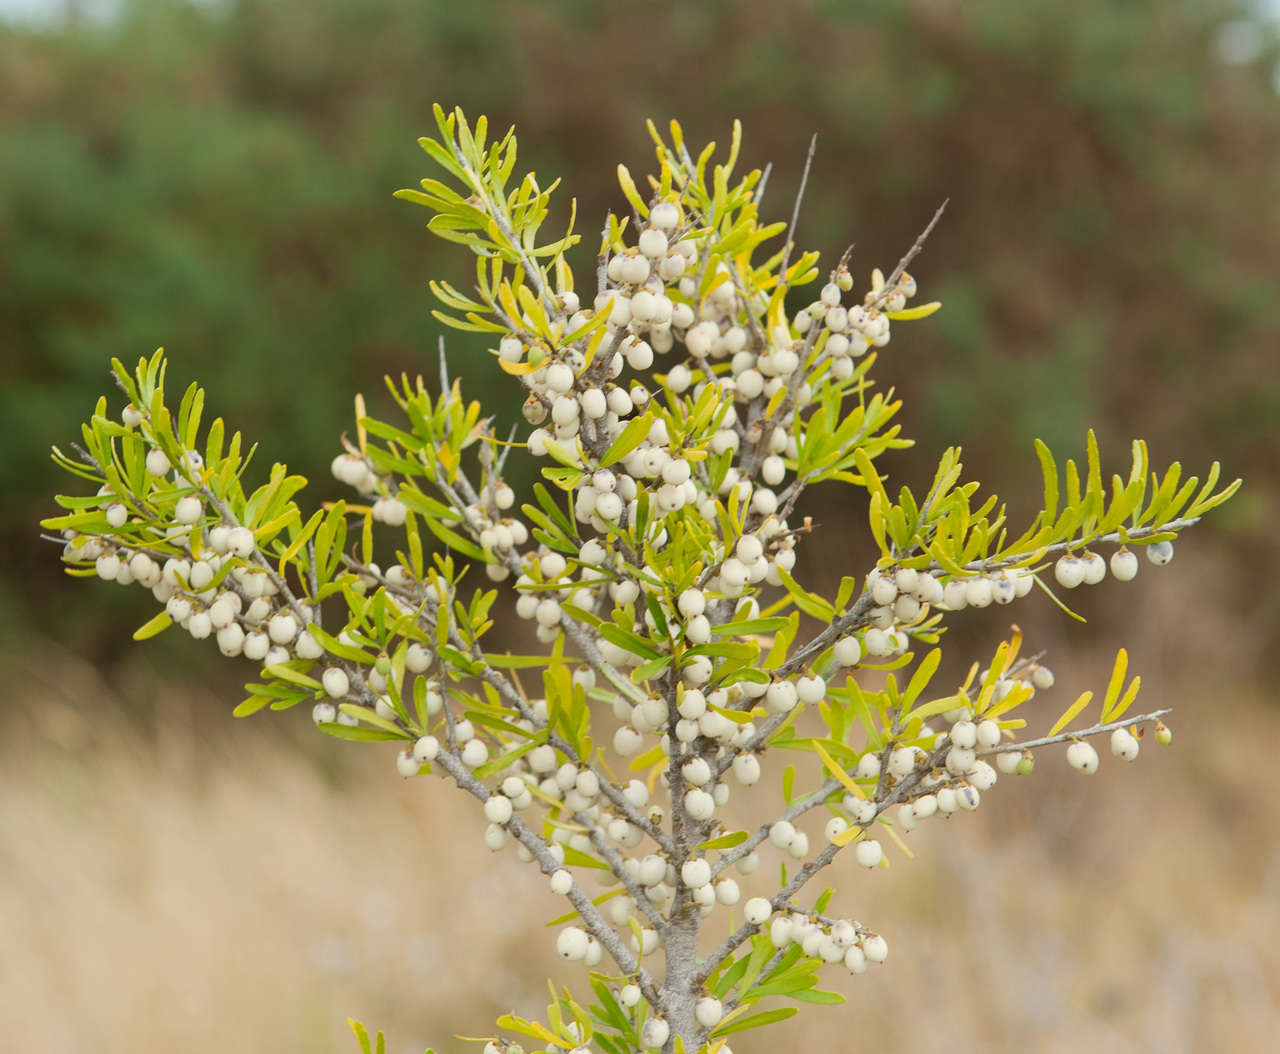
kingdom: Plantae
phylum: Tracheophyta
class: Magnoliopsida
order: Malpighiales
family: Violaceae
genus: Melicytus
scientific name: Melicytus dentatus
